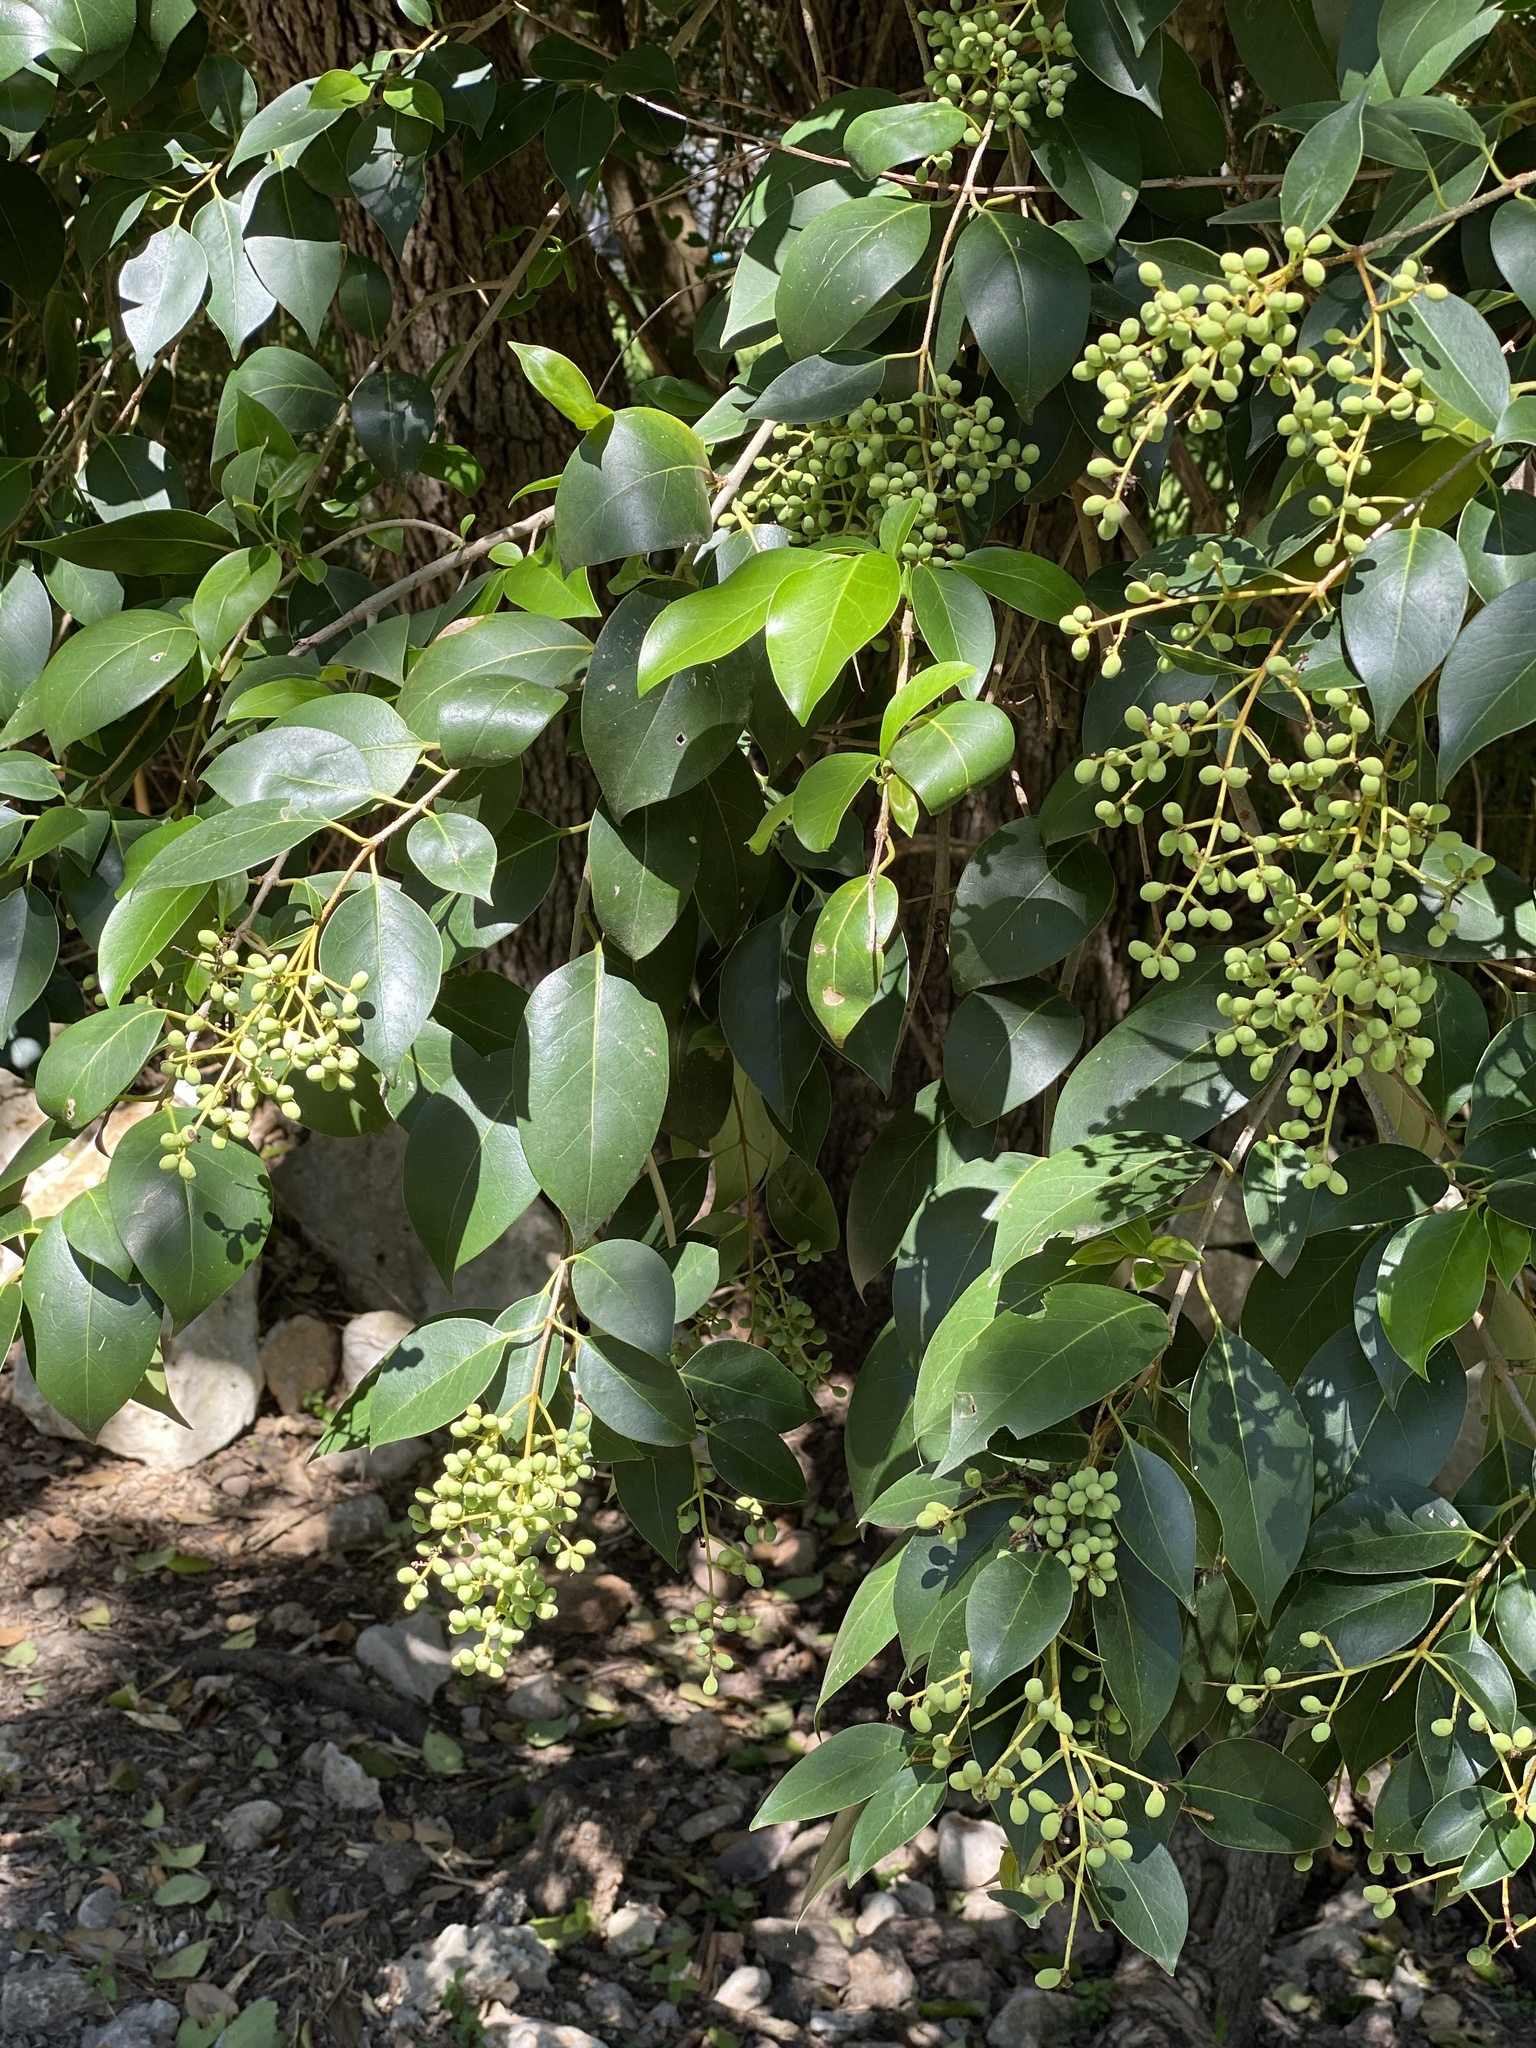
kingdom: Plantae
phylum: Tracheophyta
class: Magnoliopsida
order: Lamiales
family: Oleaceae
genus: Ligustrum
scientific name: Ligustrum lucidum
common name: Glossy privet
